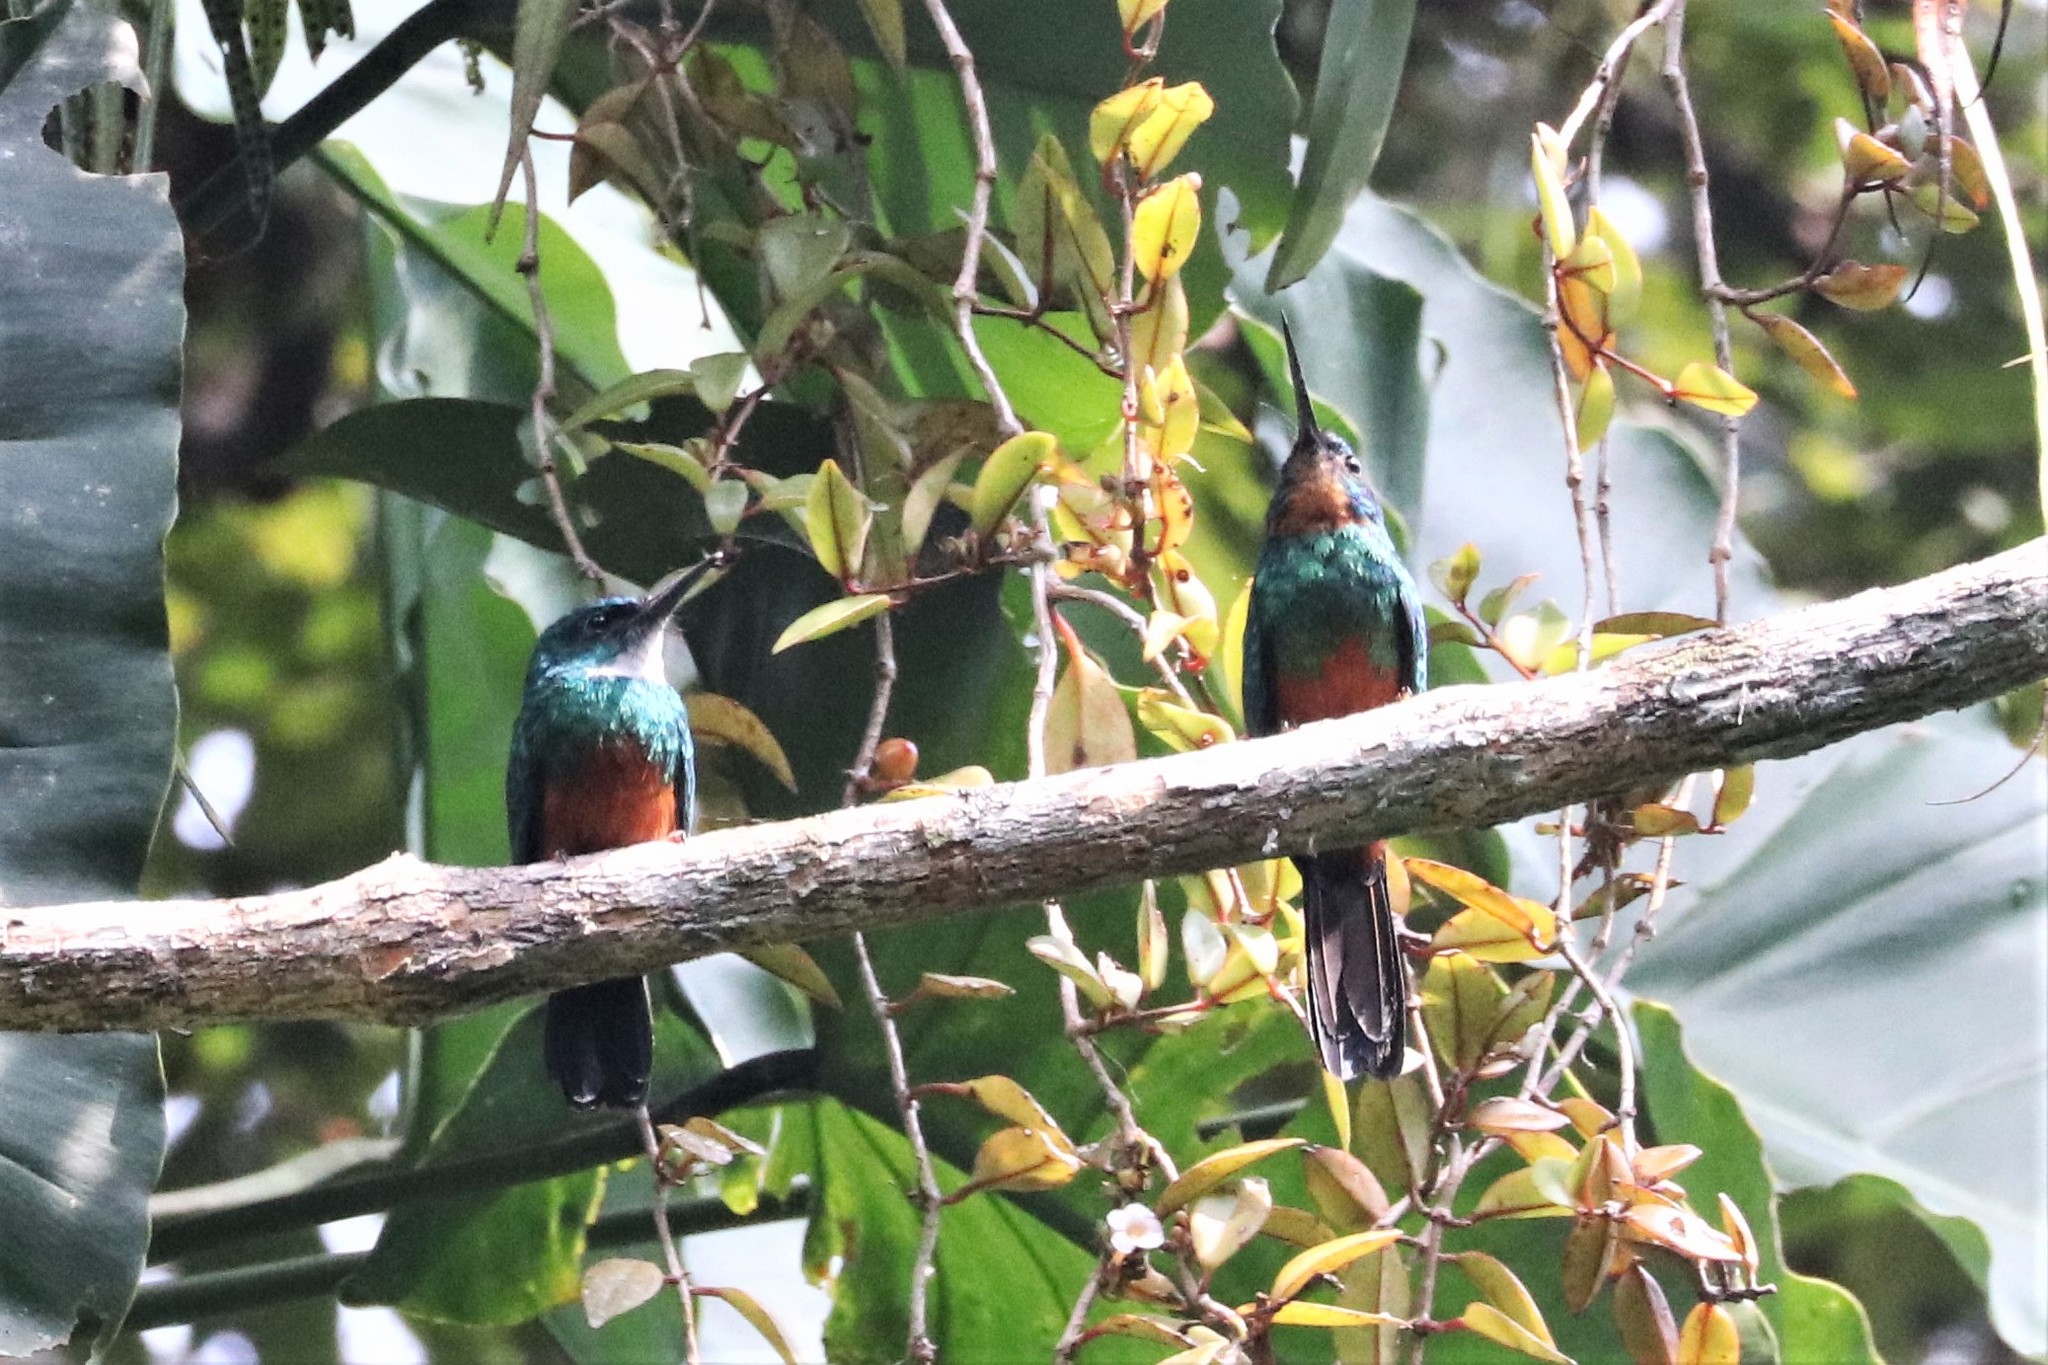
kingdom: Animalia
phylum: Chordata
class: Aves
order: Piciformes
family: Galbulidae
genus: Galbula
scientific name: Galbula galbula
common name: Green-tailed jacamar
